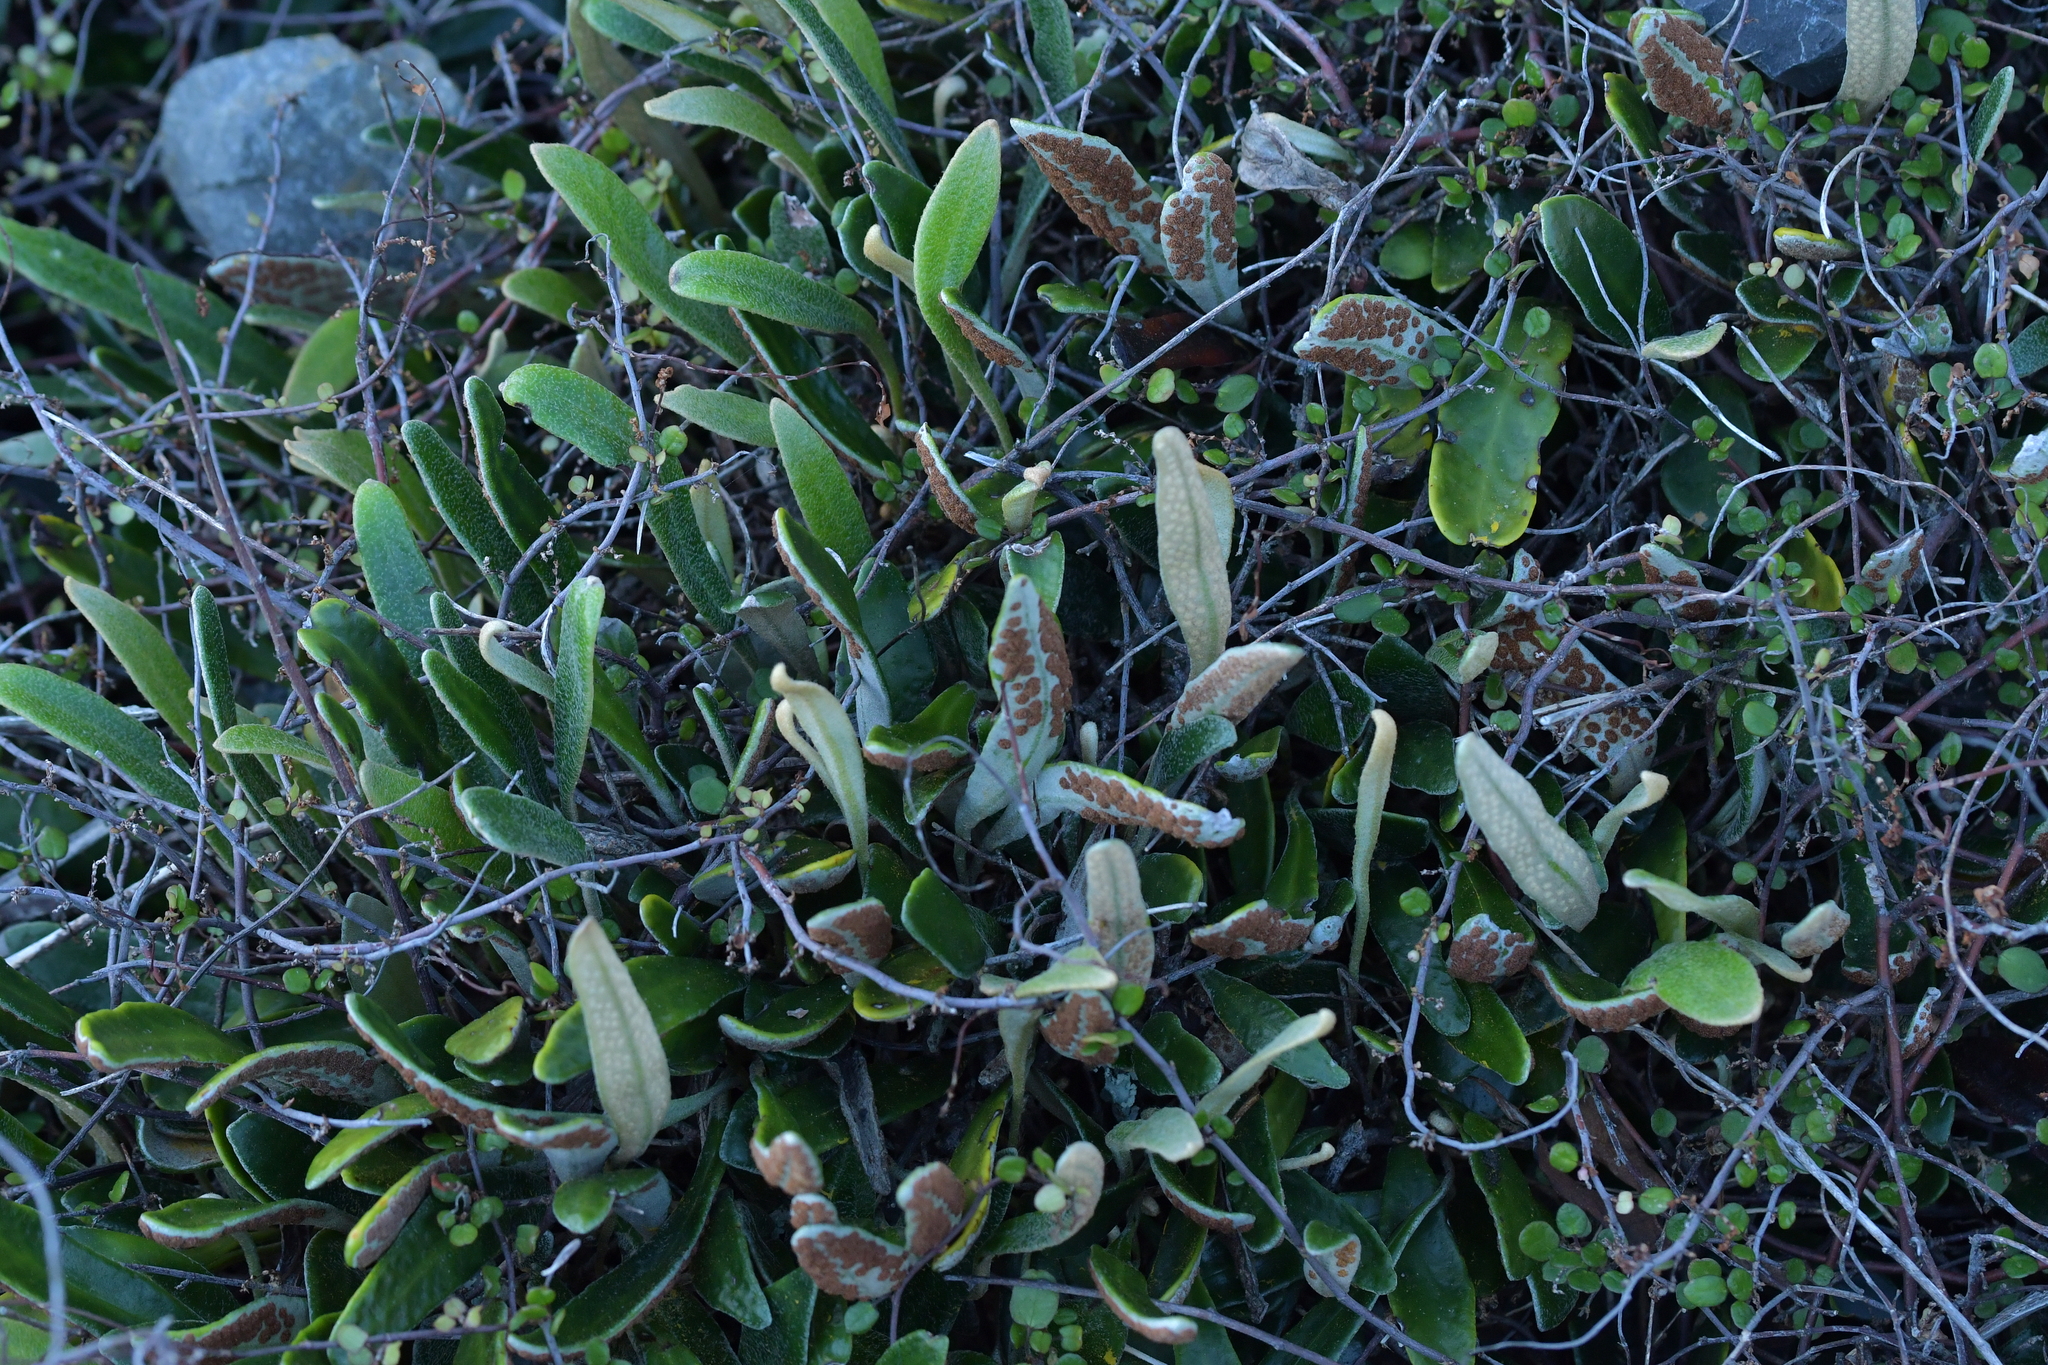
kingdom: Plantae
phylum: Tracheophyta
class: Polypodiopsida
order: Polypodiales
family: Polypodiaceae
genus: Pyrrosia
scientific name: Pyrrosia eleagnifolia
